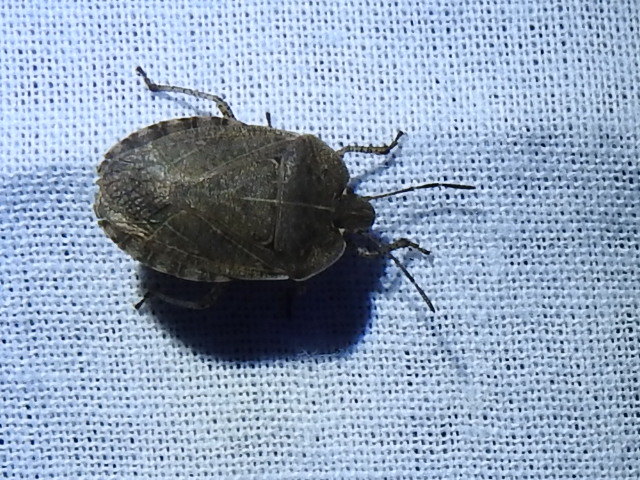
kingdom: Animalia
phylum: Arthropoda
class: Insecta
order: Hemiptera
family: Pentatomidae
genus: Menecles
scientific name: Menecles insertus
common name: Elf shoe stink bug
